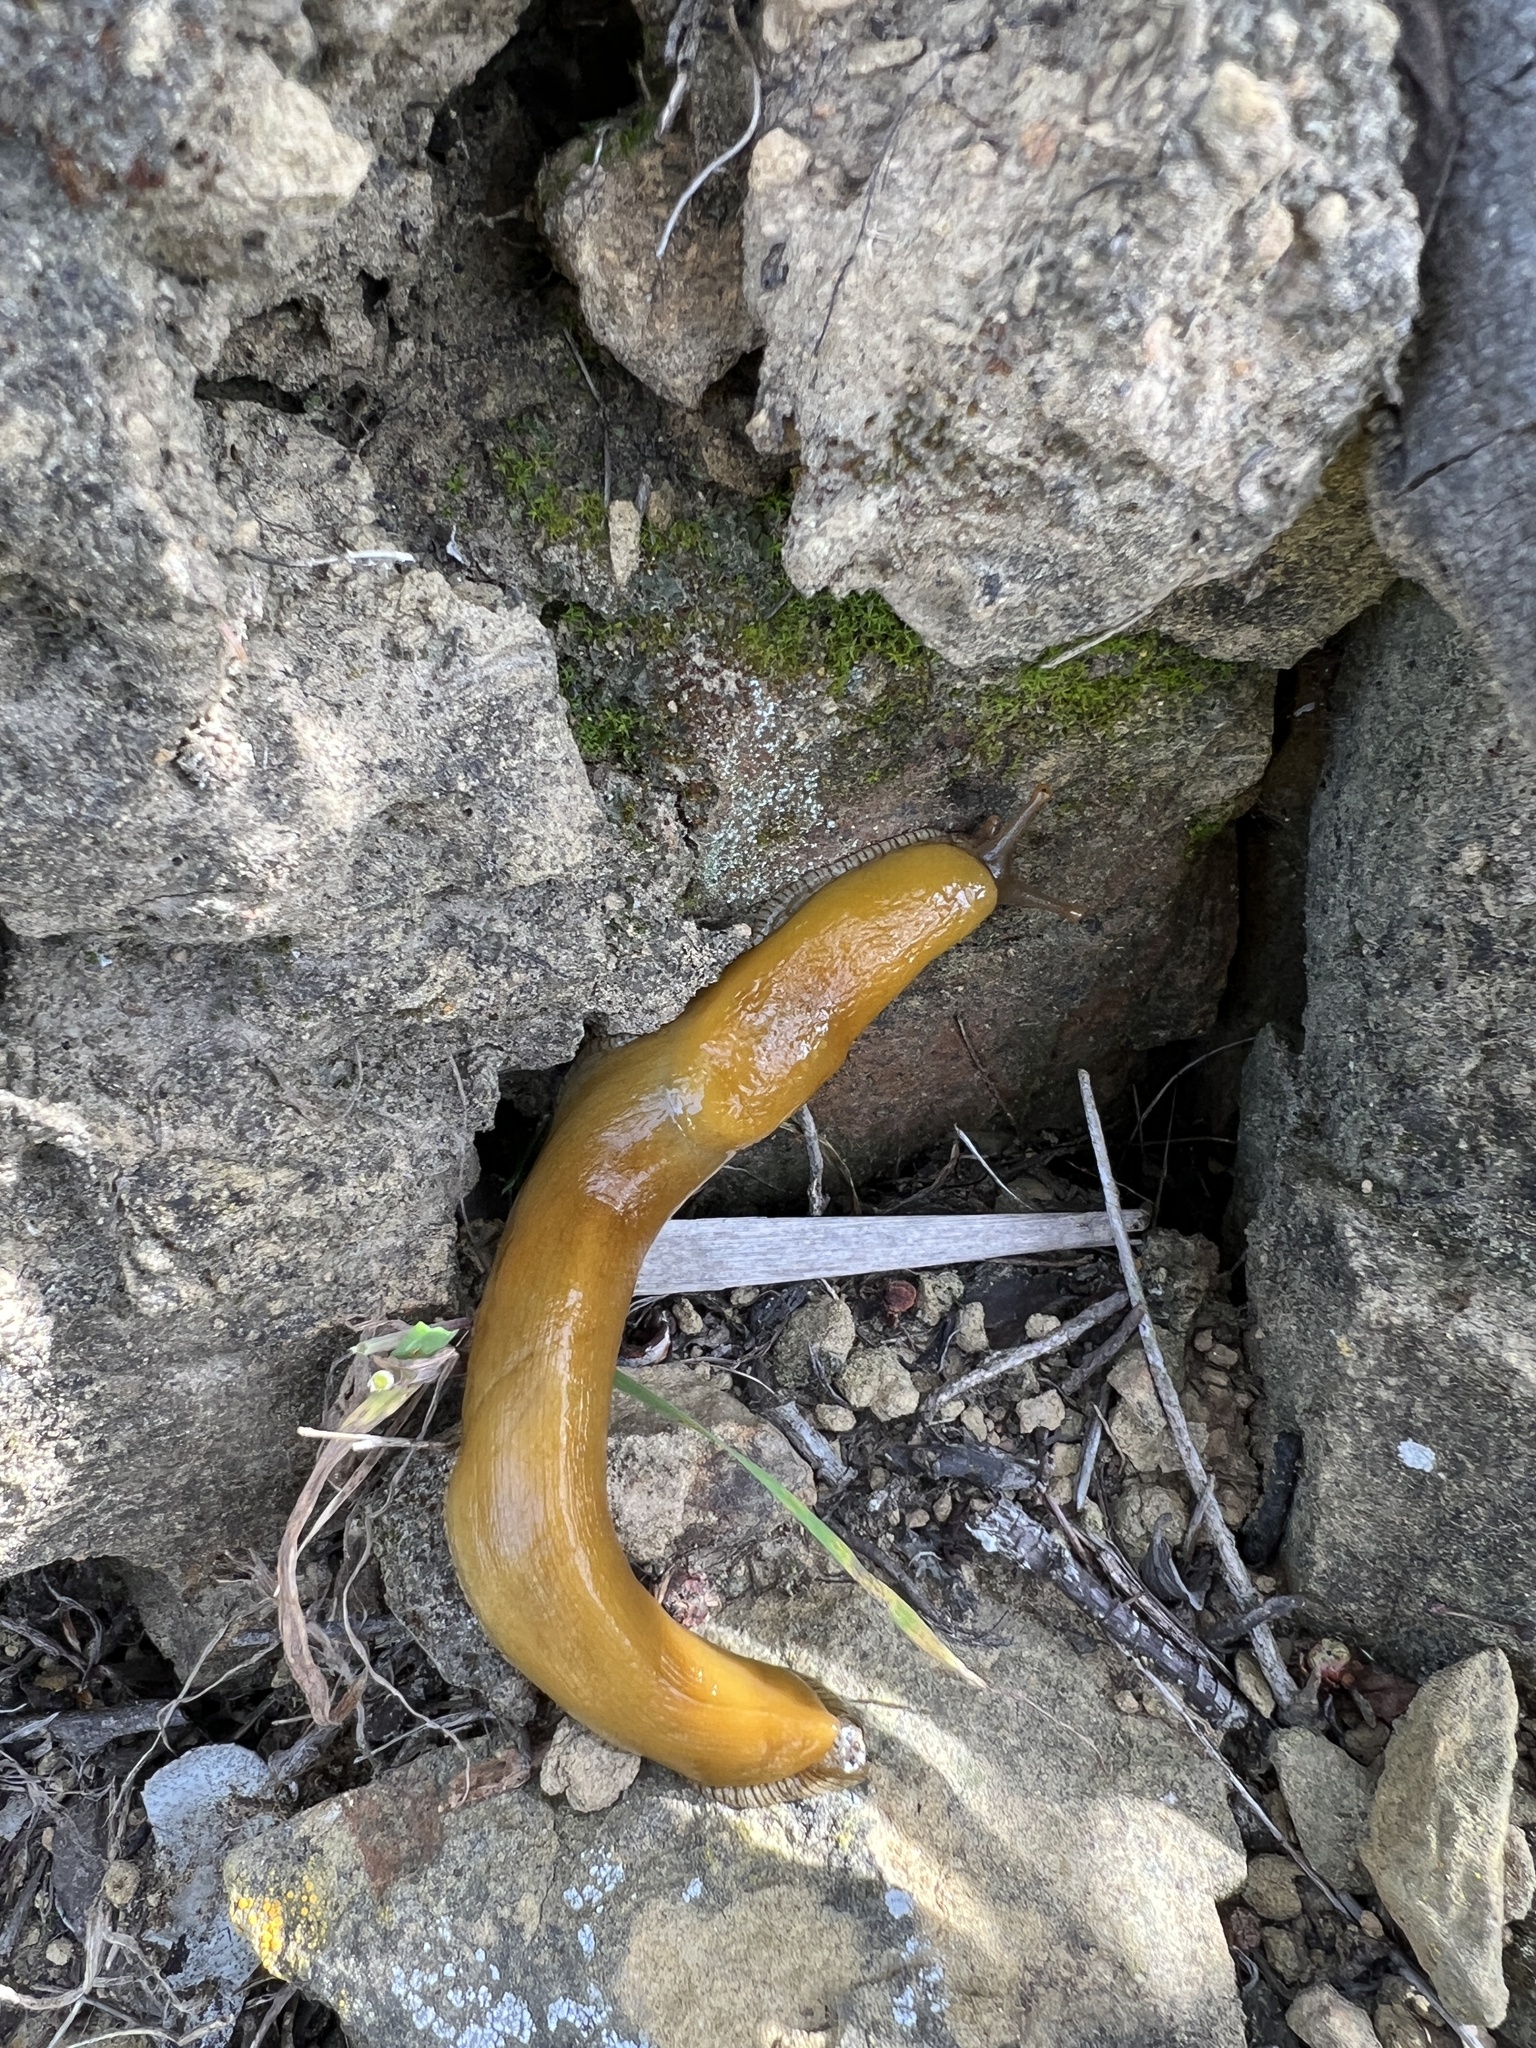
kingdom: Animalia
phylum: Mollusca
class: Gastropoda
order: Stylommatophora
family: Ariolimacidae
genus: Ariolimax
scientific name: Ariolimax stramineus
